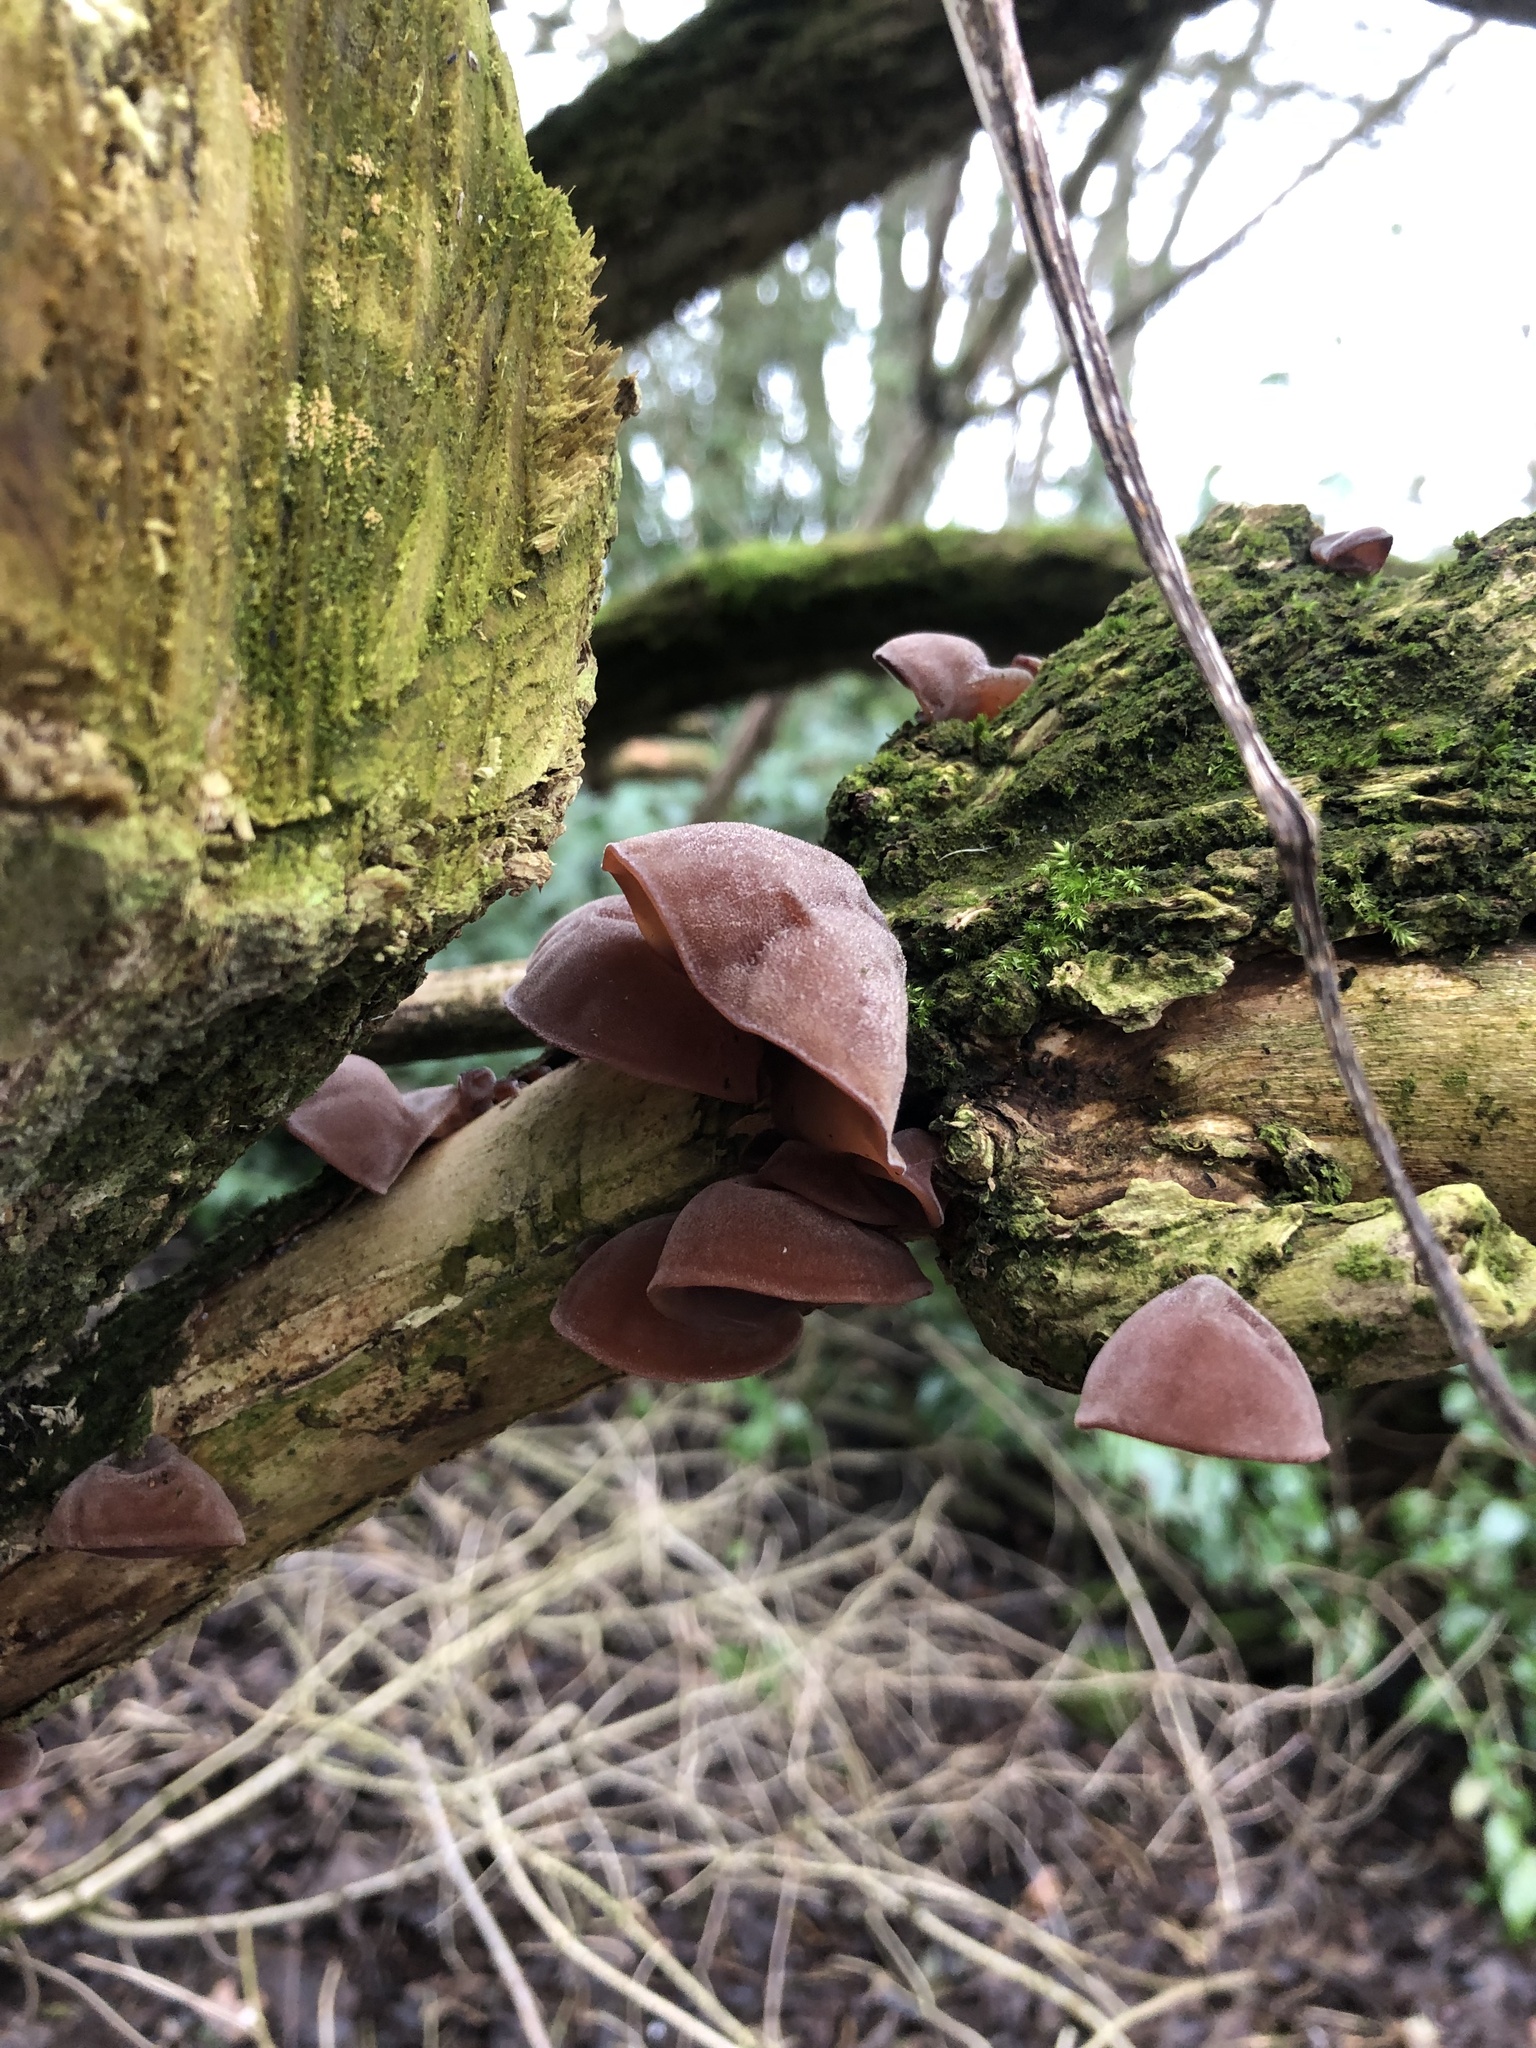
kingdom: Fungi
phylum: Basidiomycota
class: Agaricomycetes
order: Auriculariales
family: Auriculariaceae
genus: Auricularia
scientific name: Auricularia auricula-judae
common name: Jelly ear
